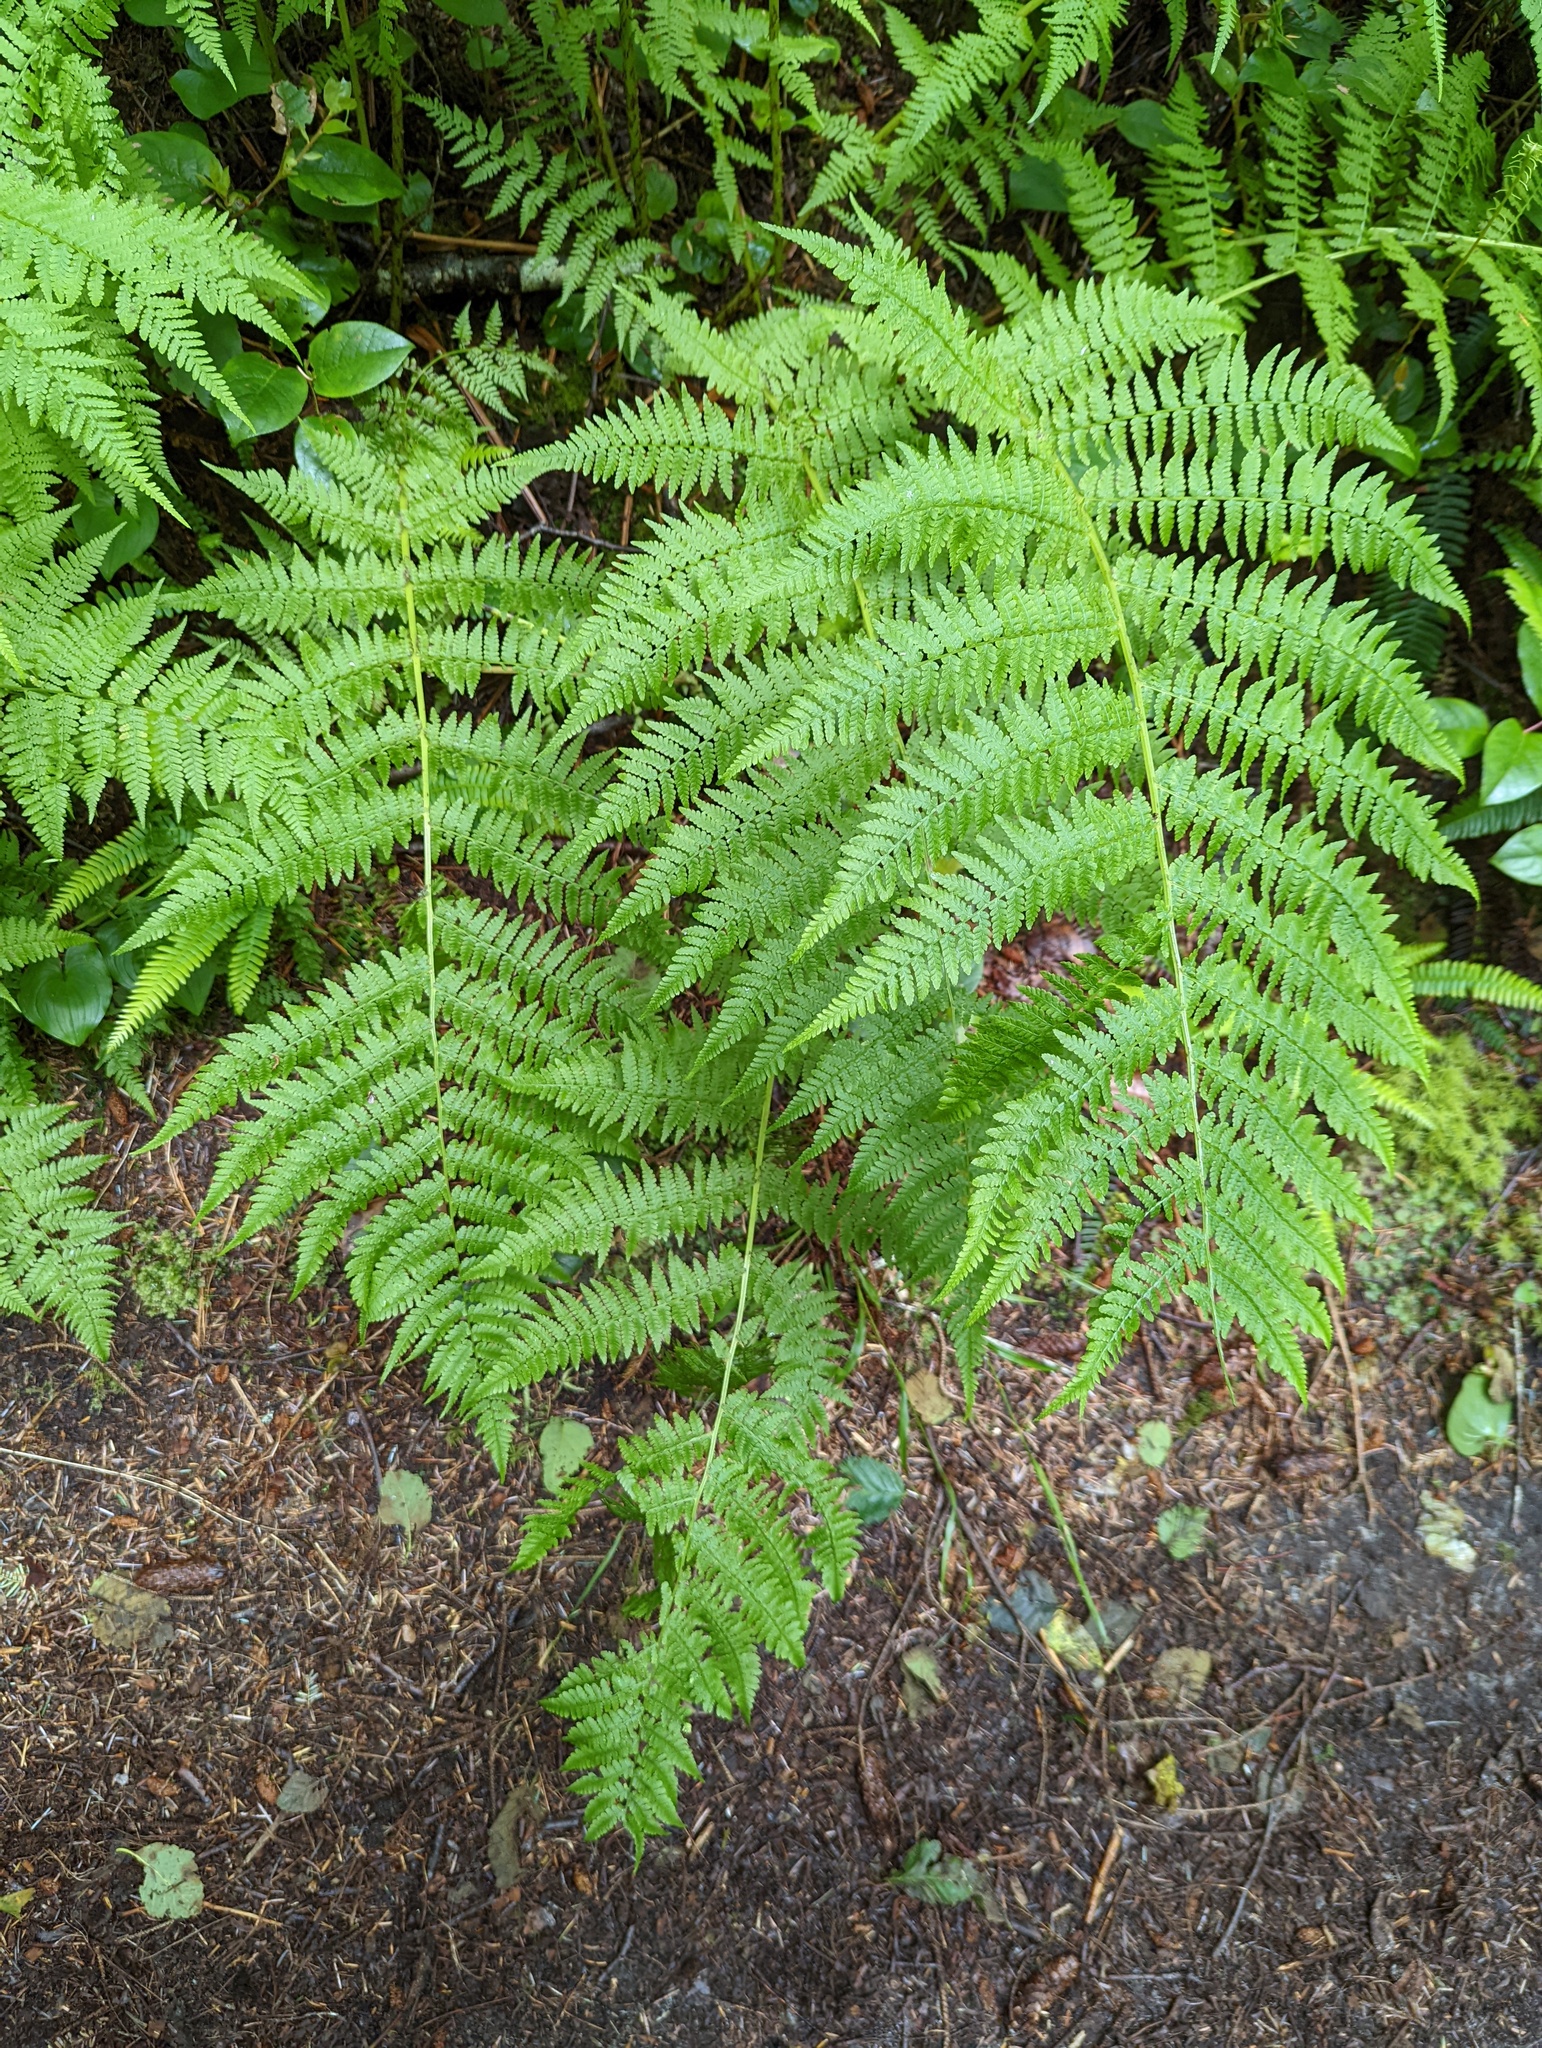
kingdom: Plantae
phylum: Tracheophyta
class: Polypodiopsida
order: Polypodiales
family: Athyriaceae
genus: Athyrium
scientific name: Athyrium filix-femina
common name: Lady fern
